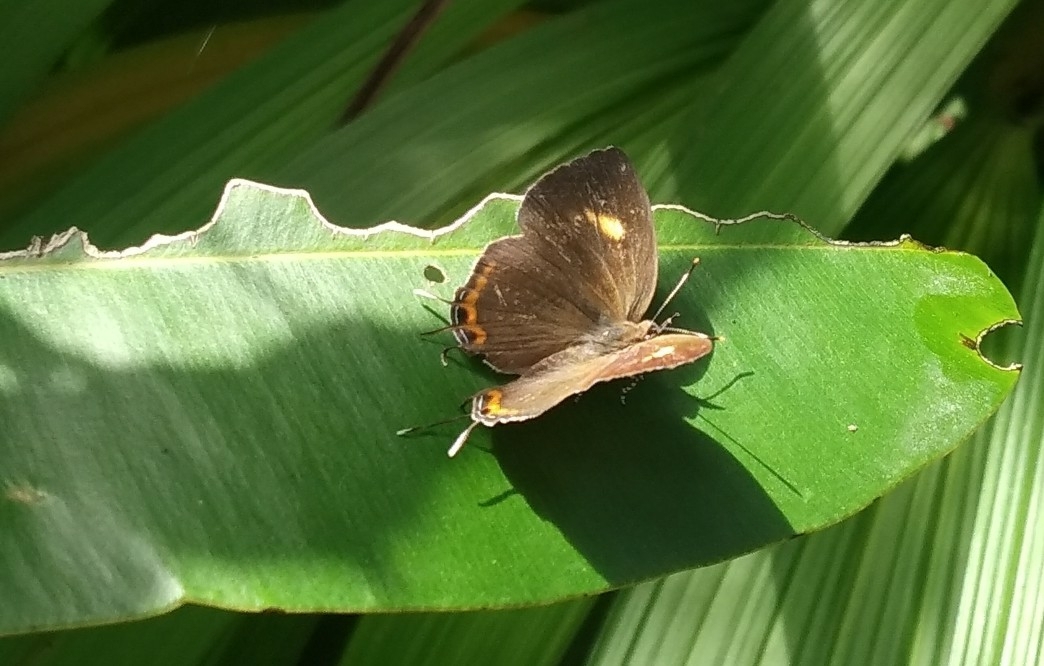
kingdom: Animalia
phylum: Arthropoda
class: Insecta
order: Lepidoptera
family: Lycaenidae
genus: Rathinda
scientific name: Rathinda amor
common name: Monkey puzzle
